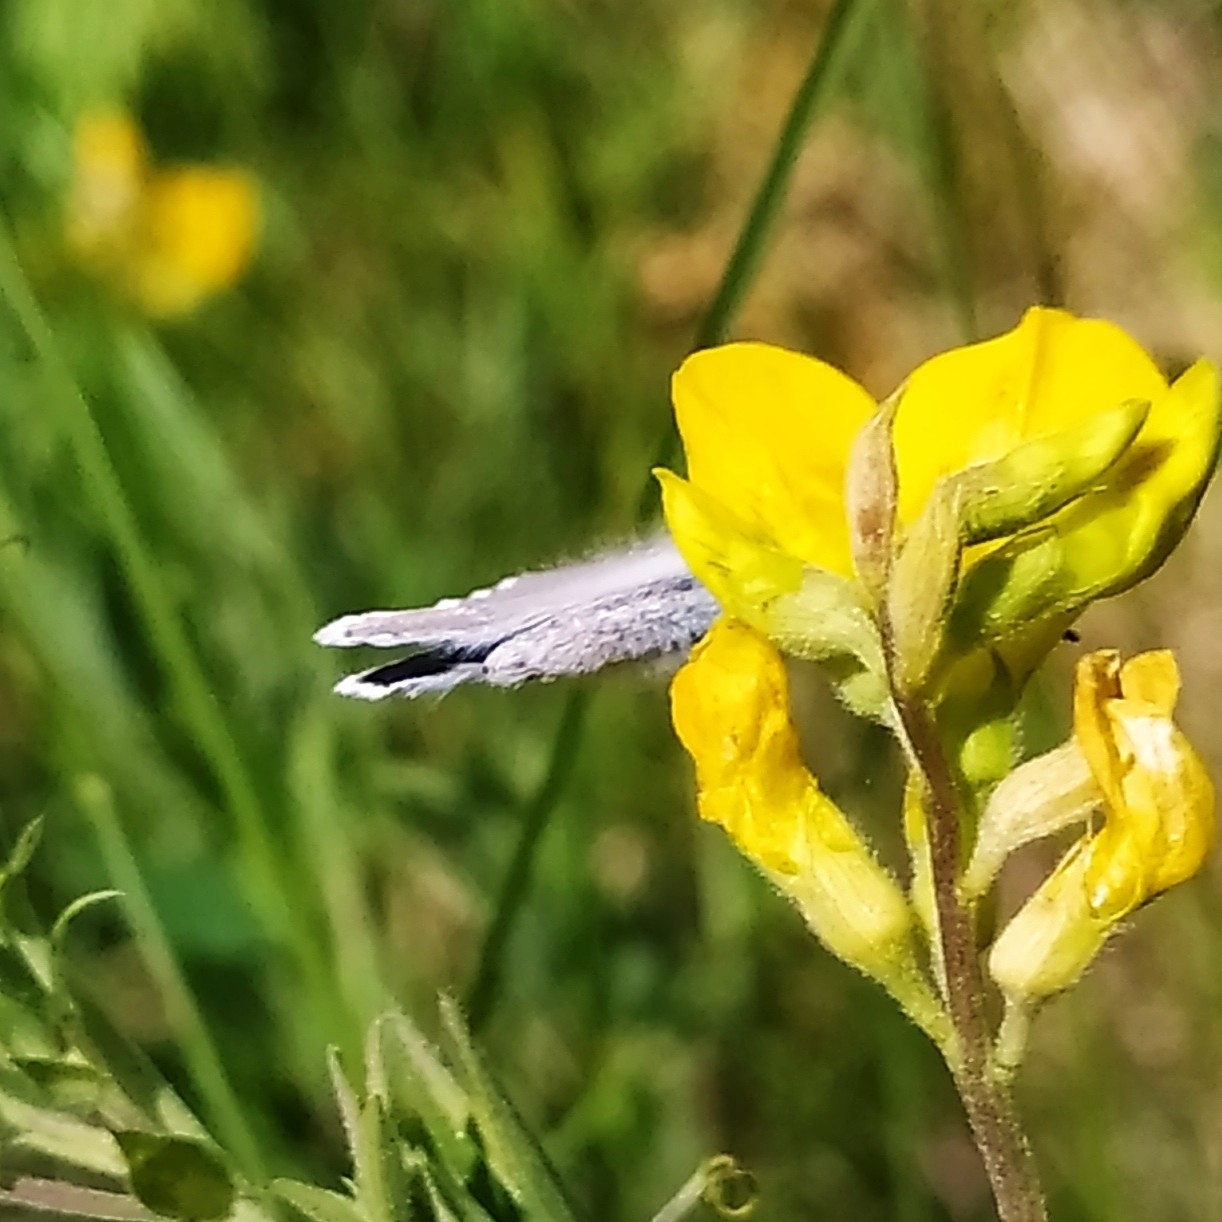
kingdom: Animalia
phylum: Arthropoda
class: Insecta
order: Lepidoptera
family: Lycaenidae
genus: Cyaniris
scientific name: Cyaniris semiargus
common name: Mazarine blue
